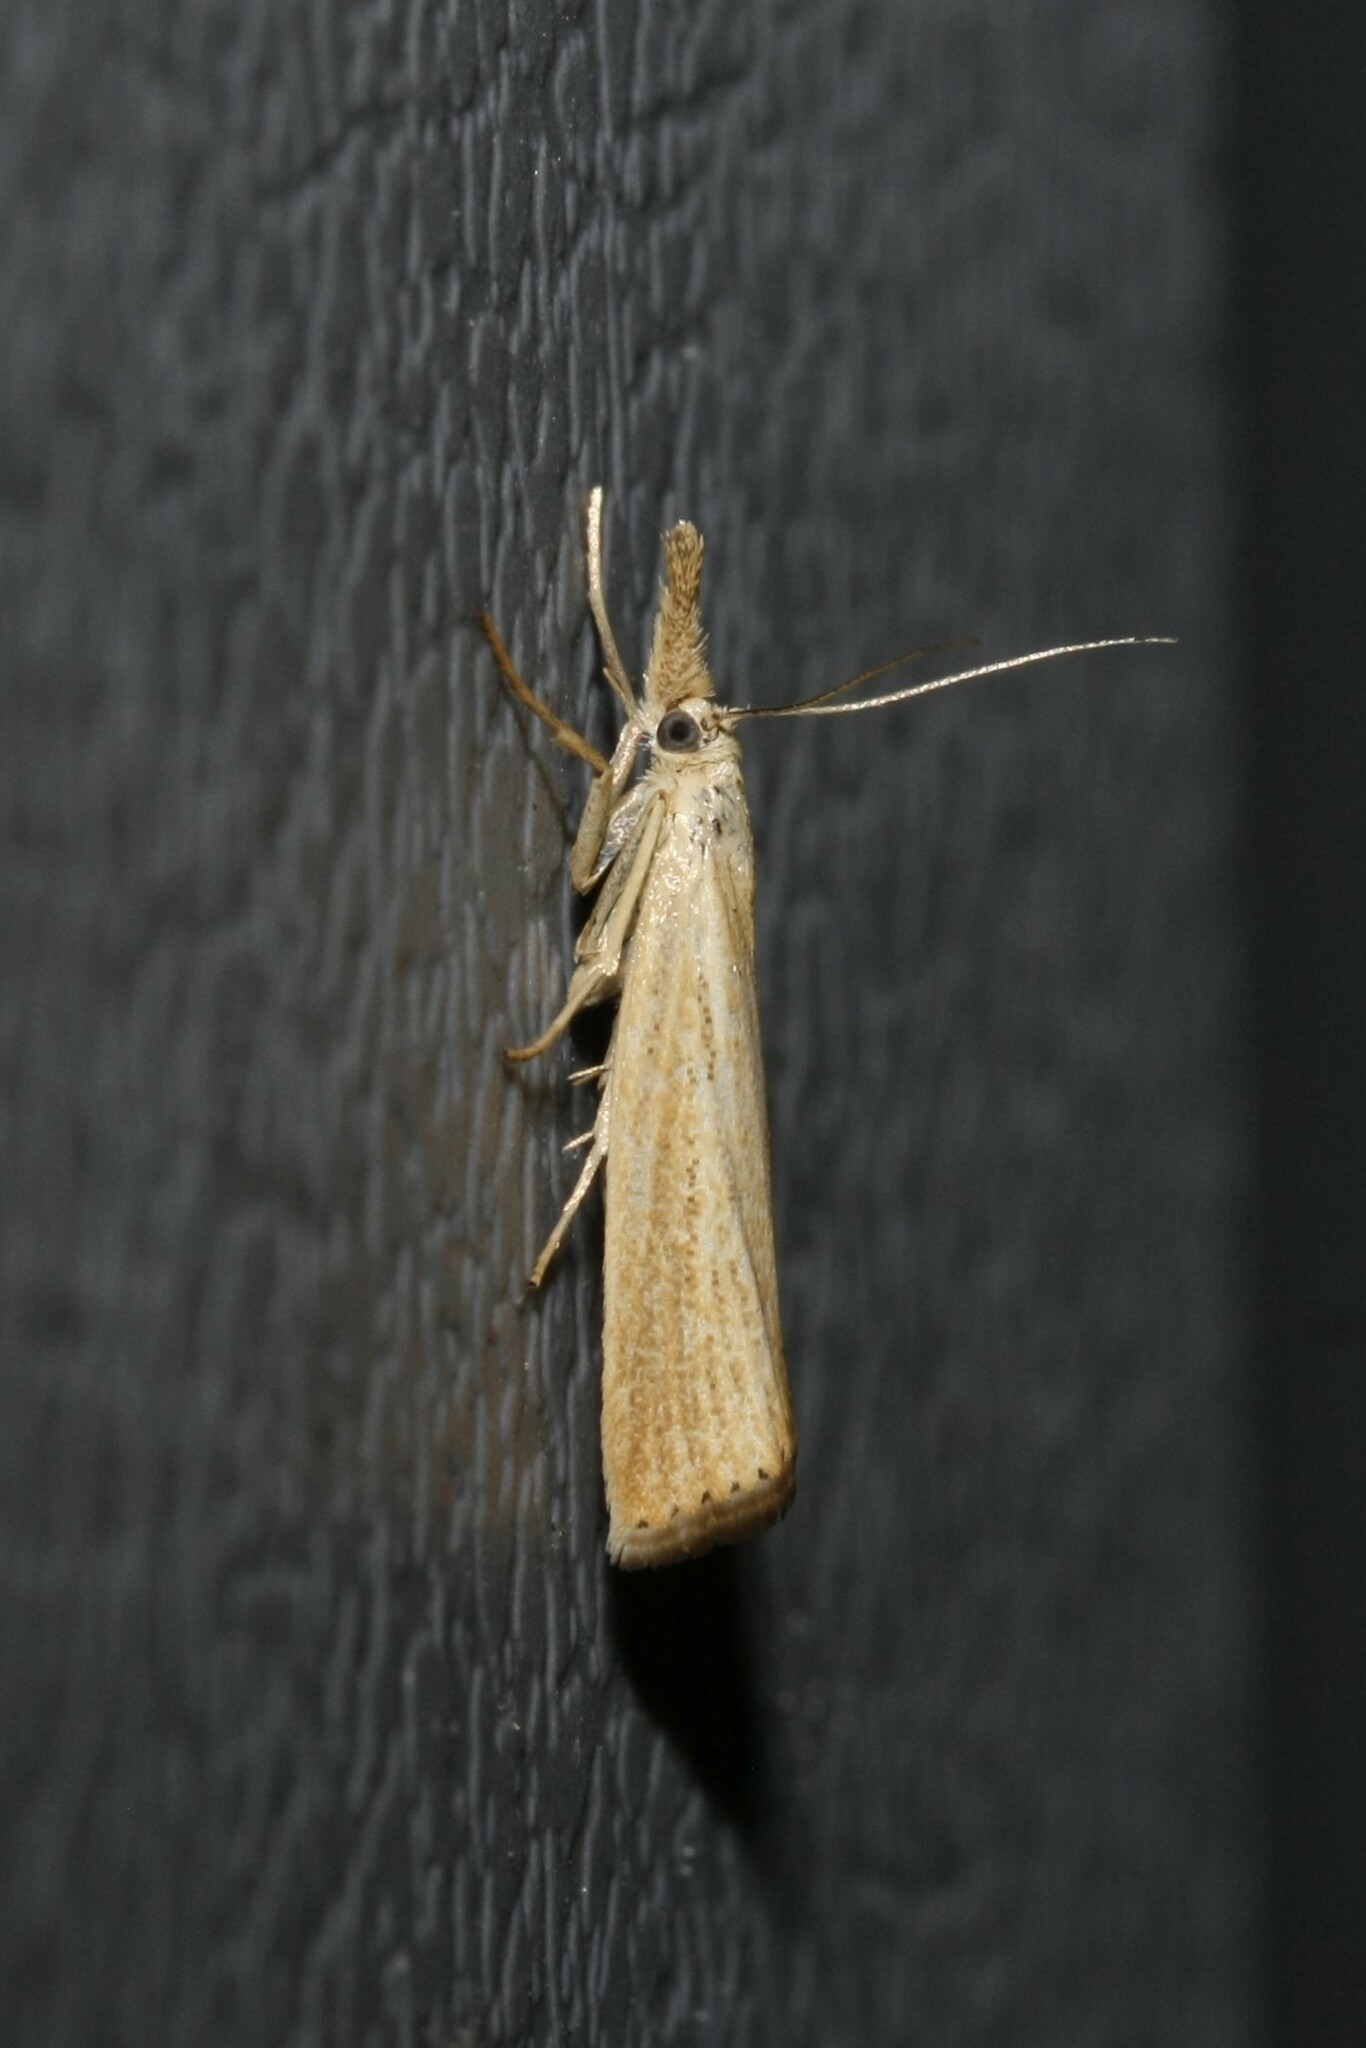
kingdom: Animalia
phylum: Arthropoda
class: Insecta
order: Lepidoptera
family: Crambidae
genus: Agriphila
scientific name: Agriphila straminella
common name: Straw grass-veneer
